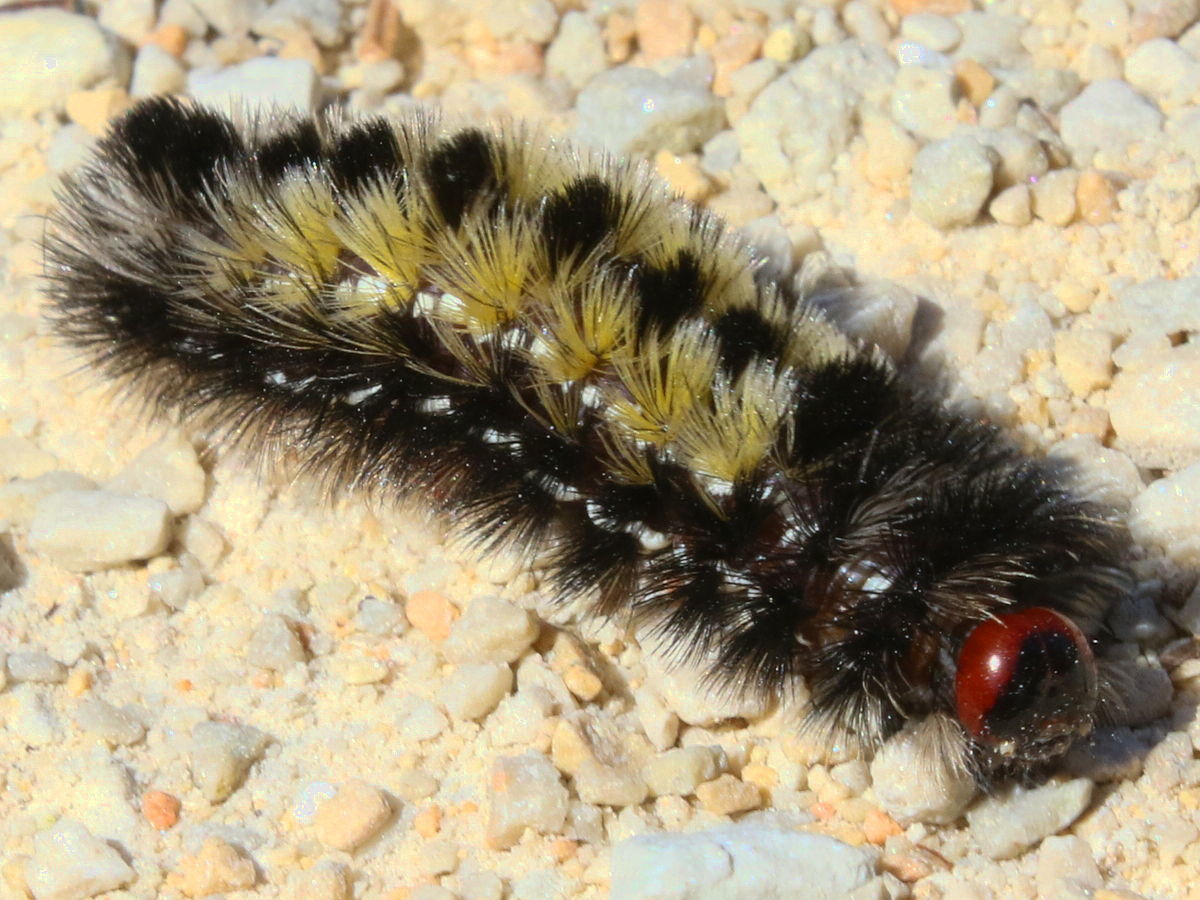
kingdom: Animalia
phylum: Arthropoda
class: Insecta
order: Lepidoptera
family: Erebidae
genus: Ctenucha
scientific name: Ctenucha virginica
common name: Virginia ctenucha moth
